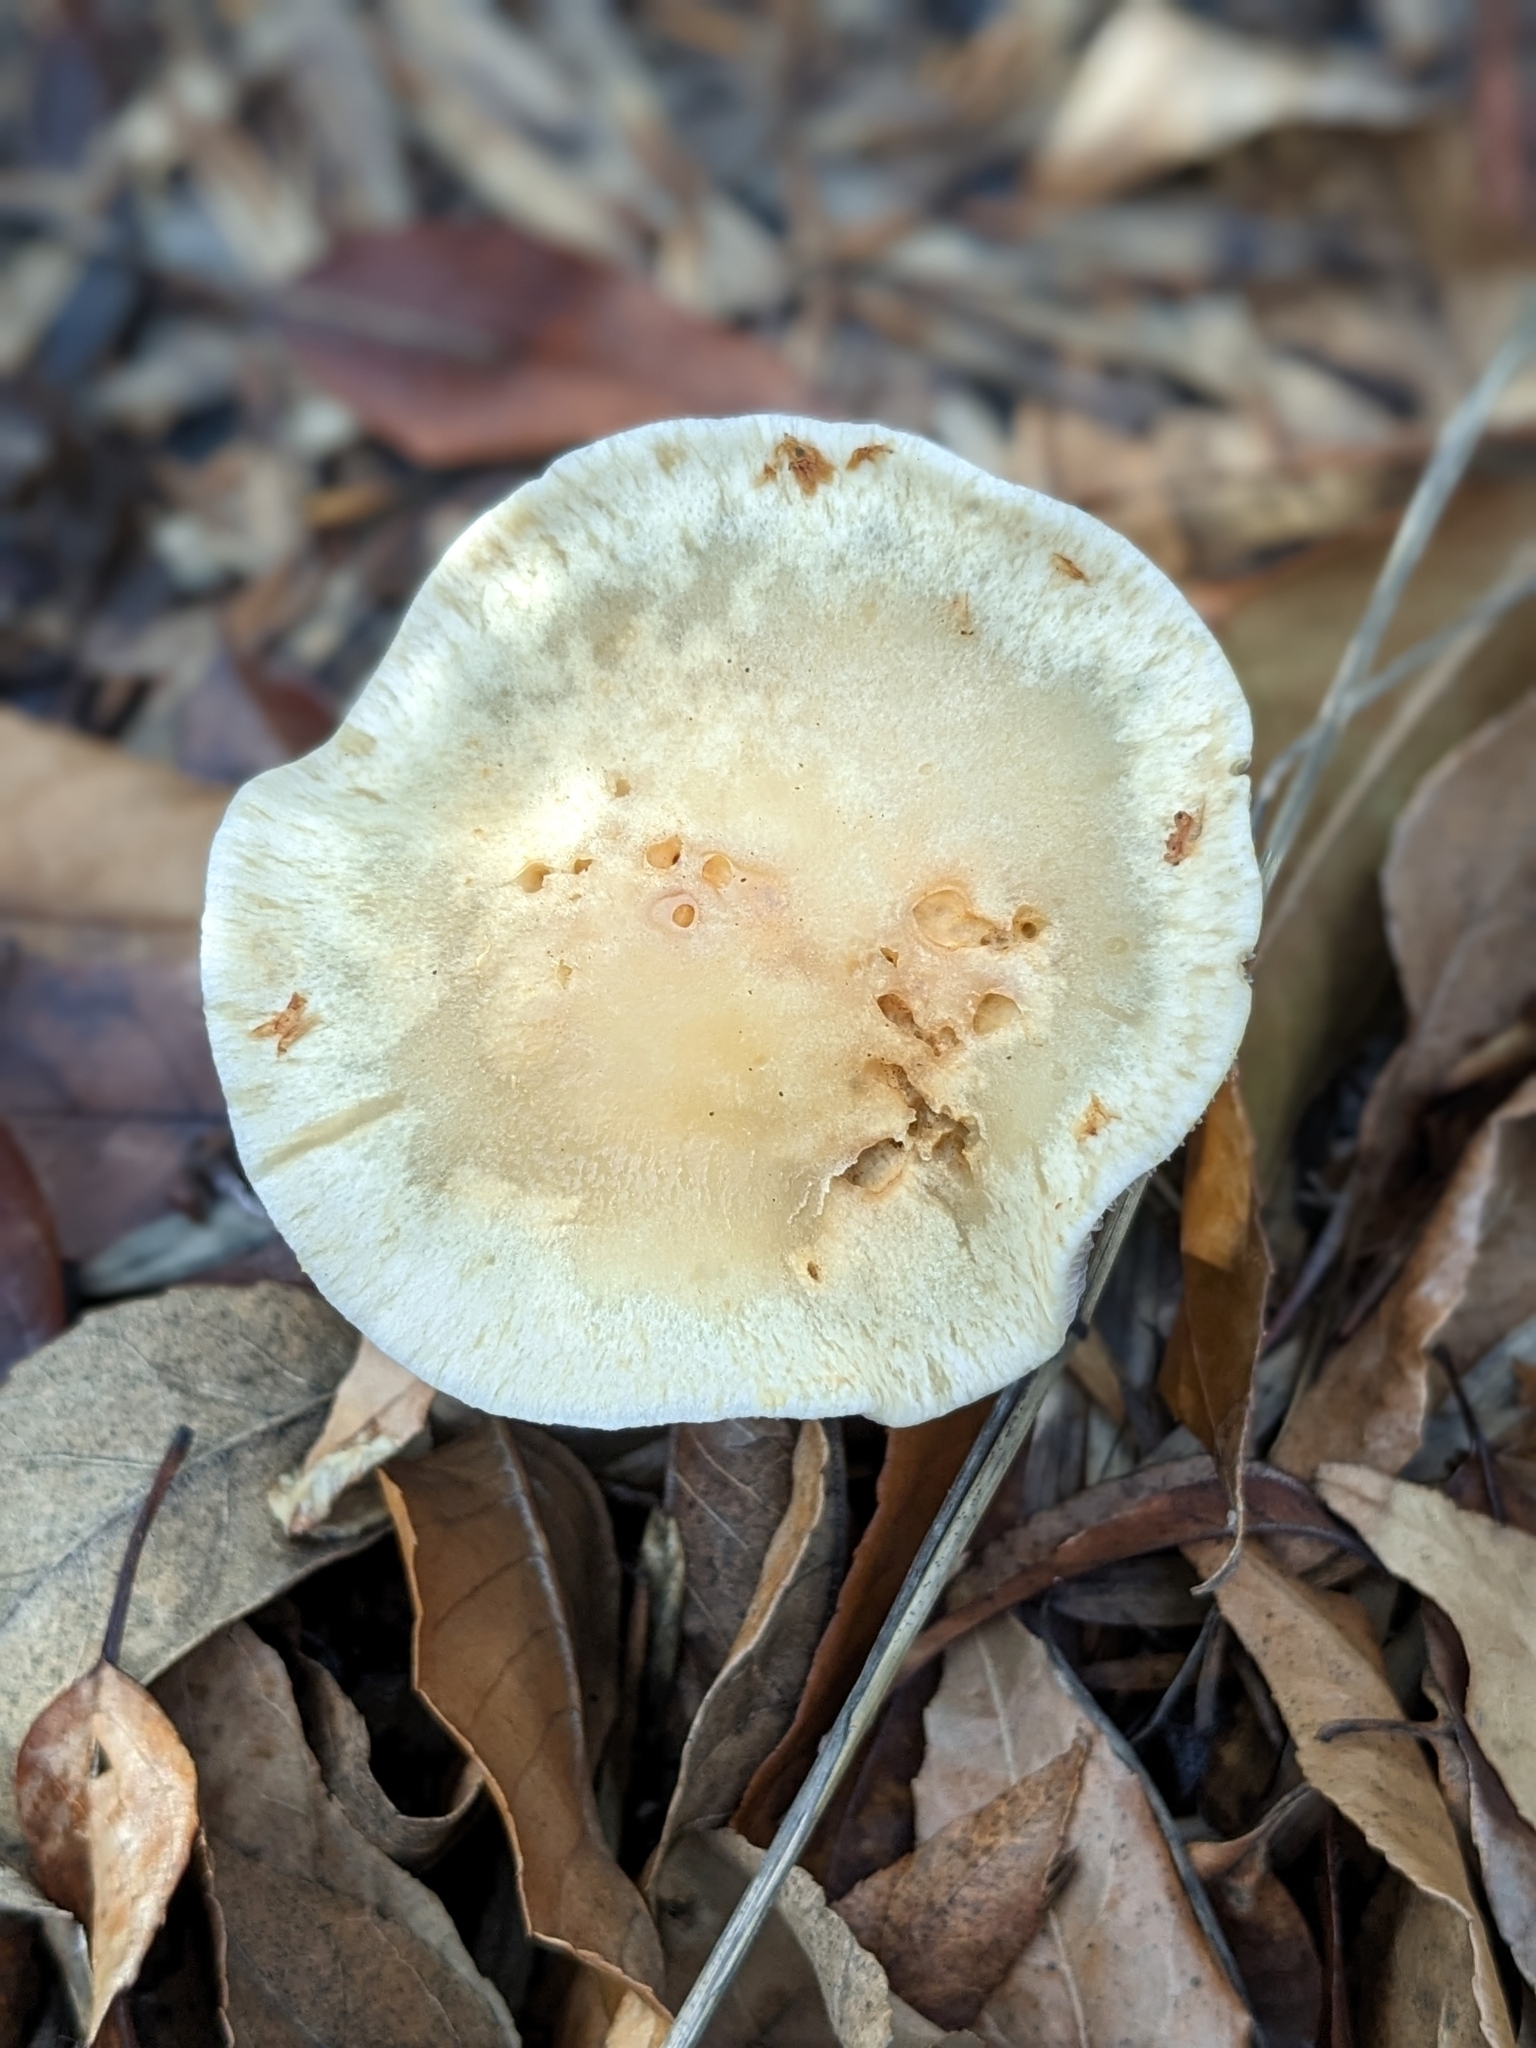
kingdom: Fungi
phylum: Basidiomycota
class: Agaricomycetes
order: Agaricales
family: Strophariaceae
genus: Leratiomyces
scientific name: Leratiomyces percevalii
